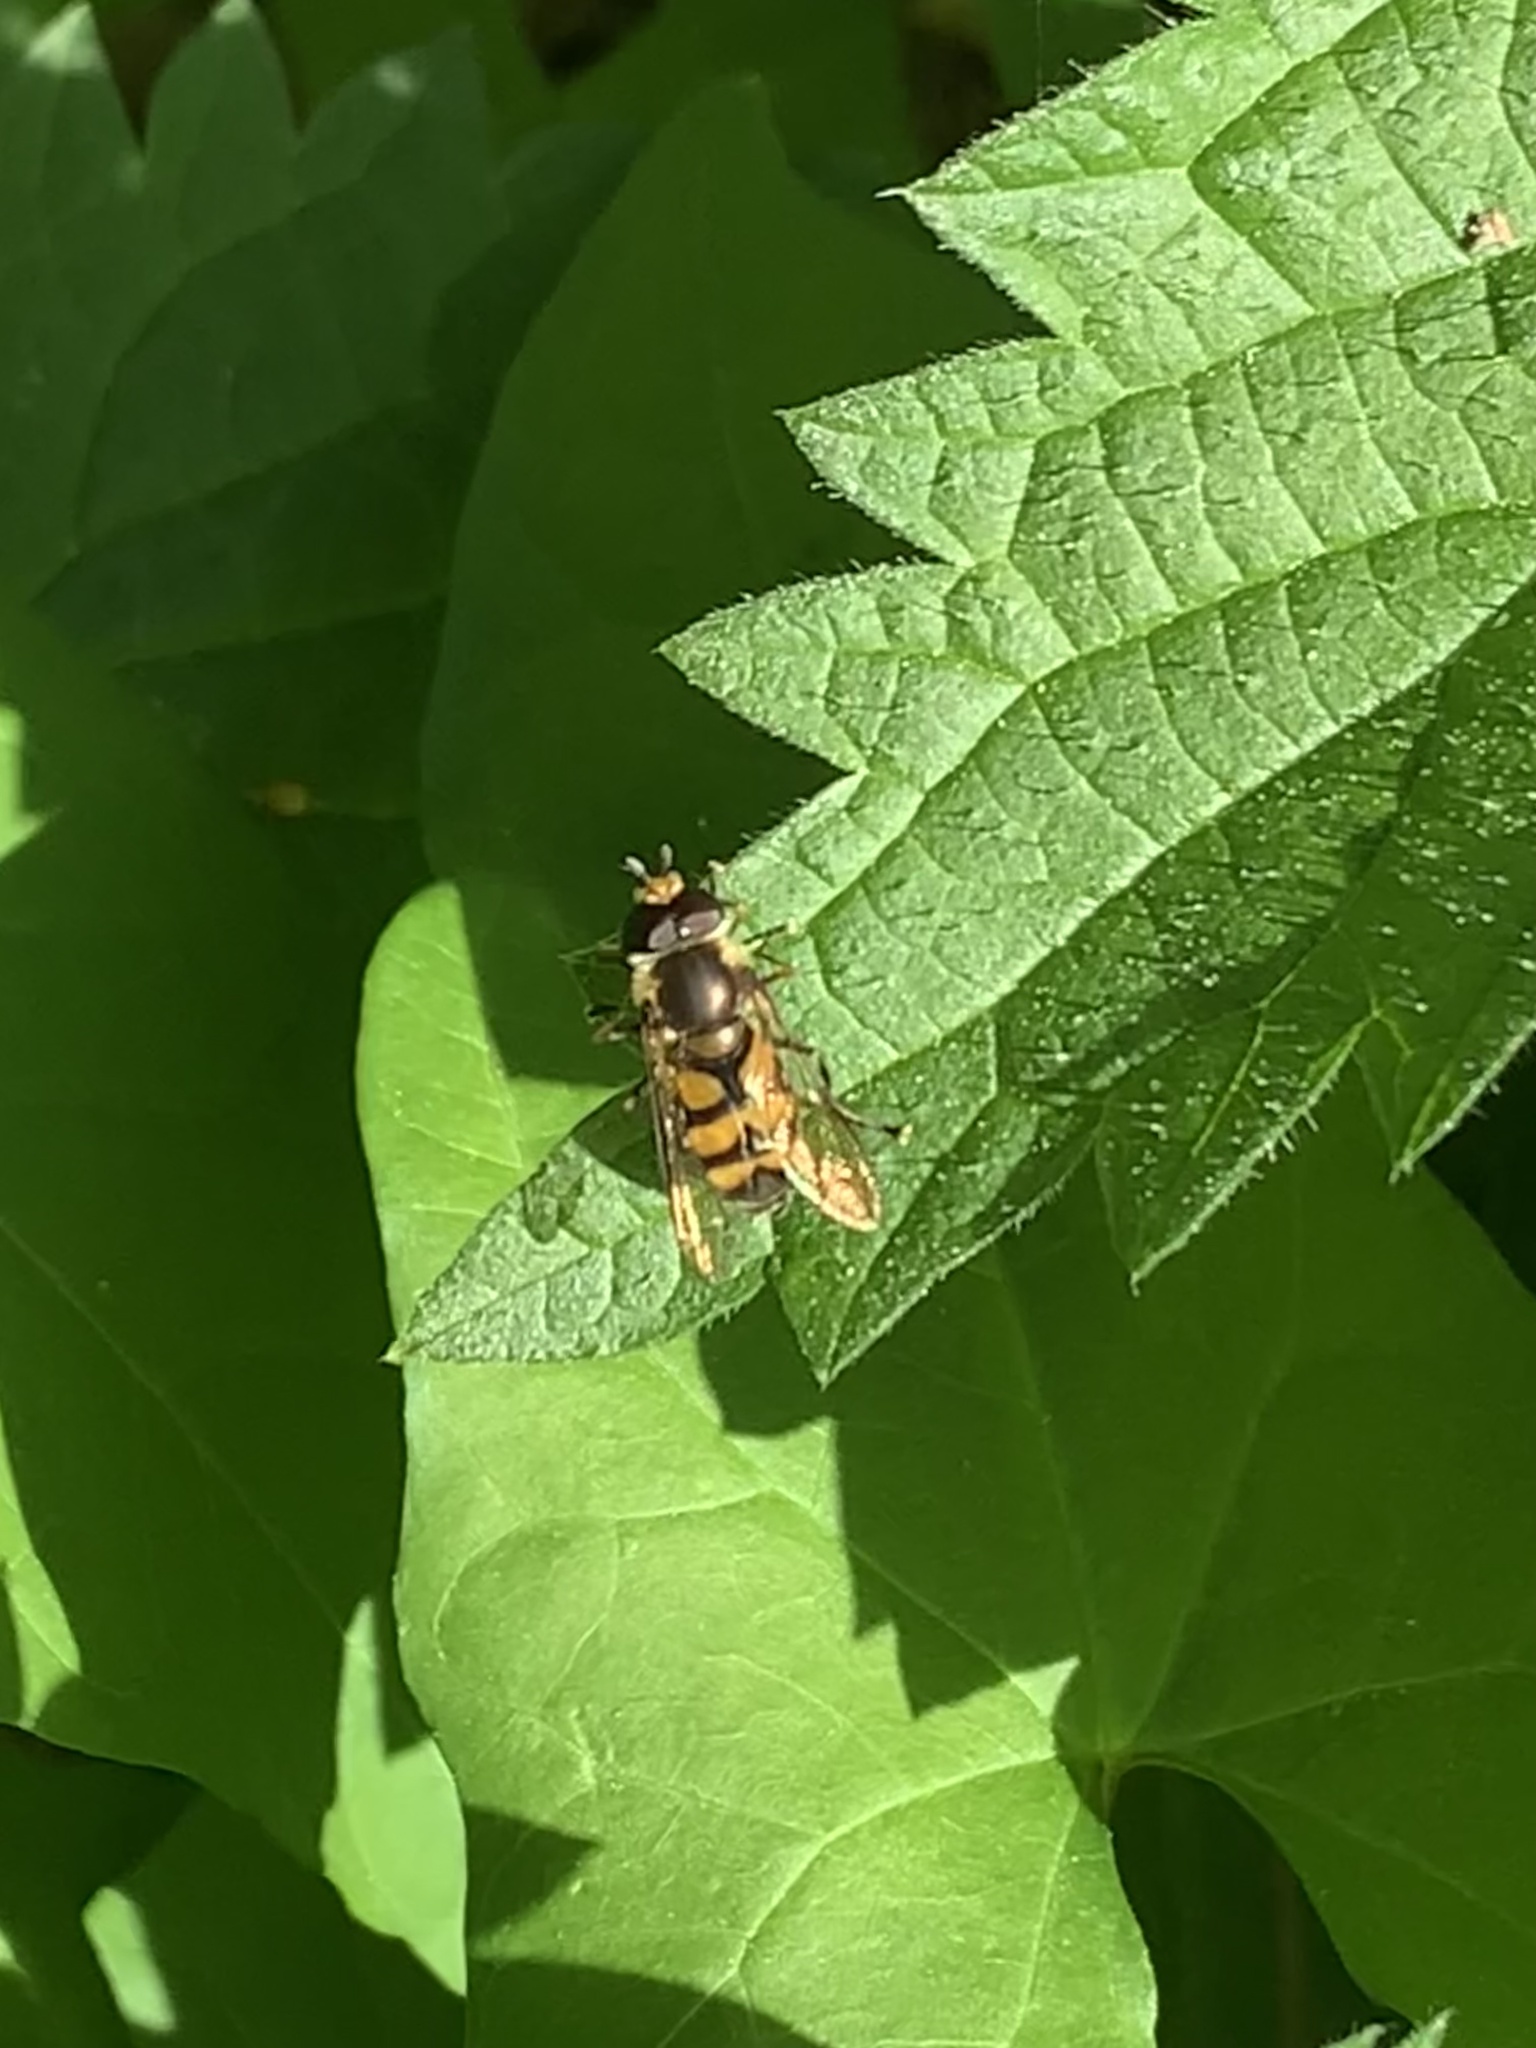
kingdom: Animalia
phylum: Arthropoda
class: Insecta
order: Diptera
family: Syrphidae
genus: Didea
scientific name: Didea
